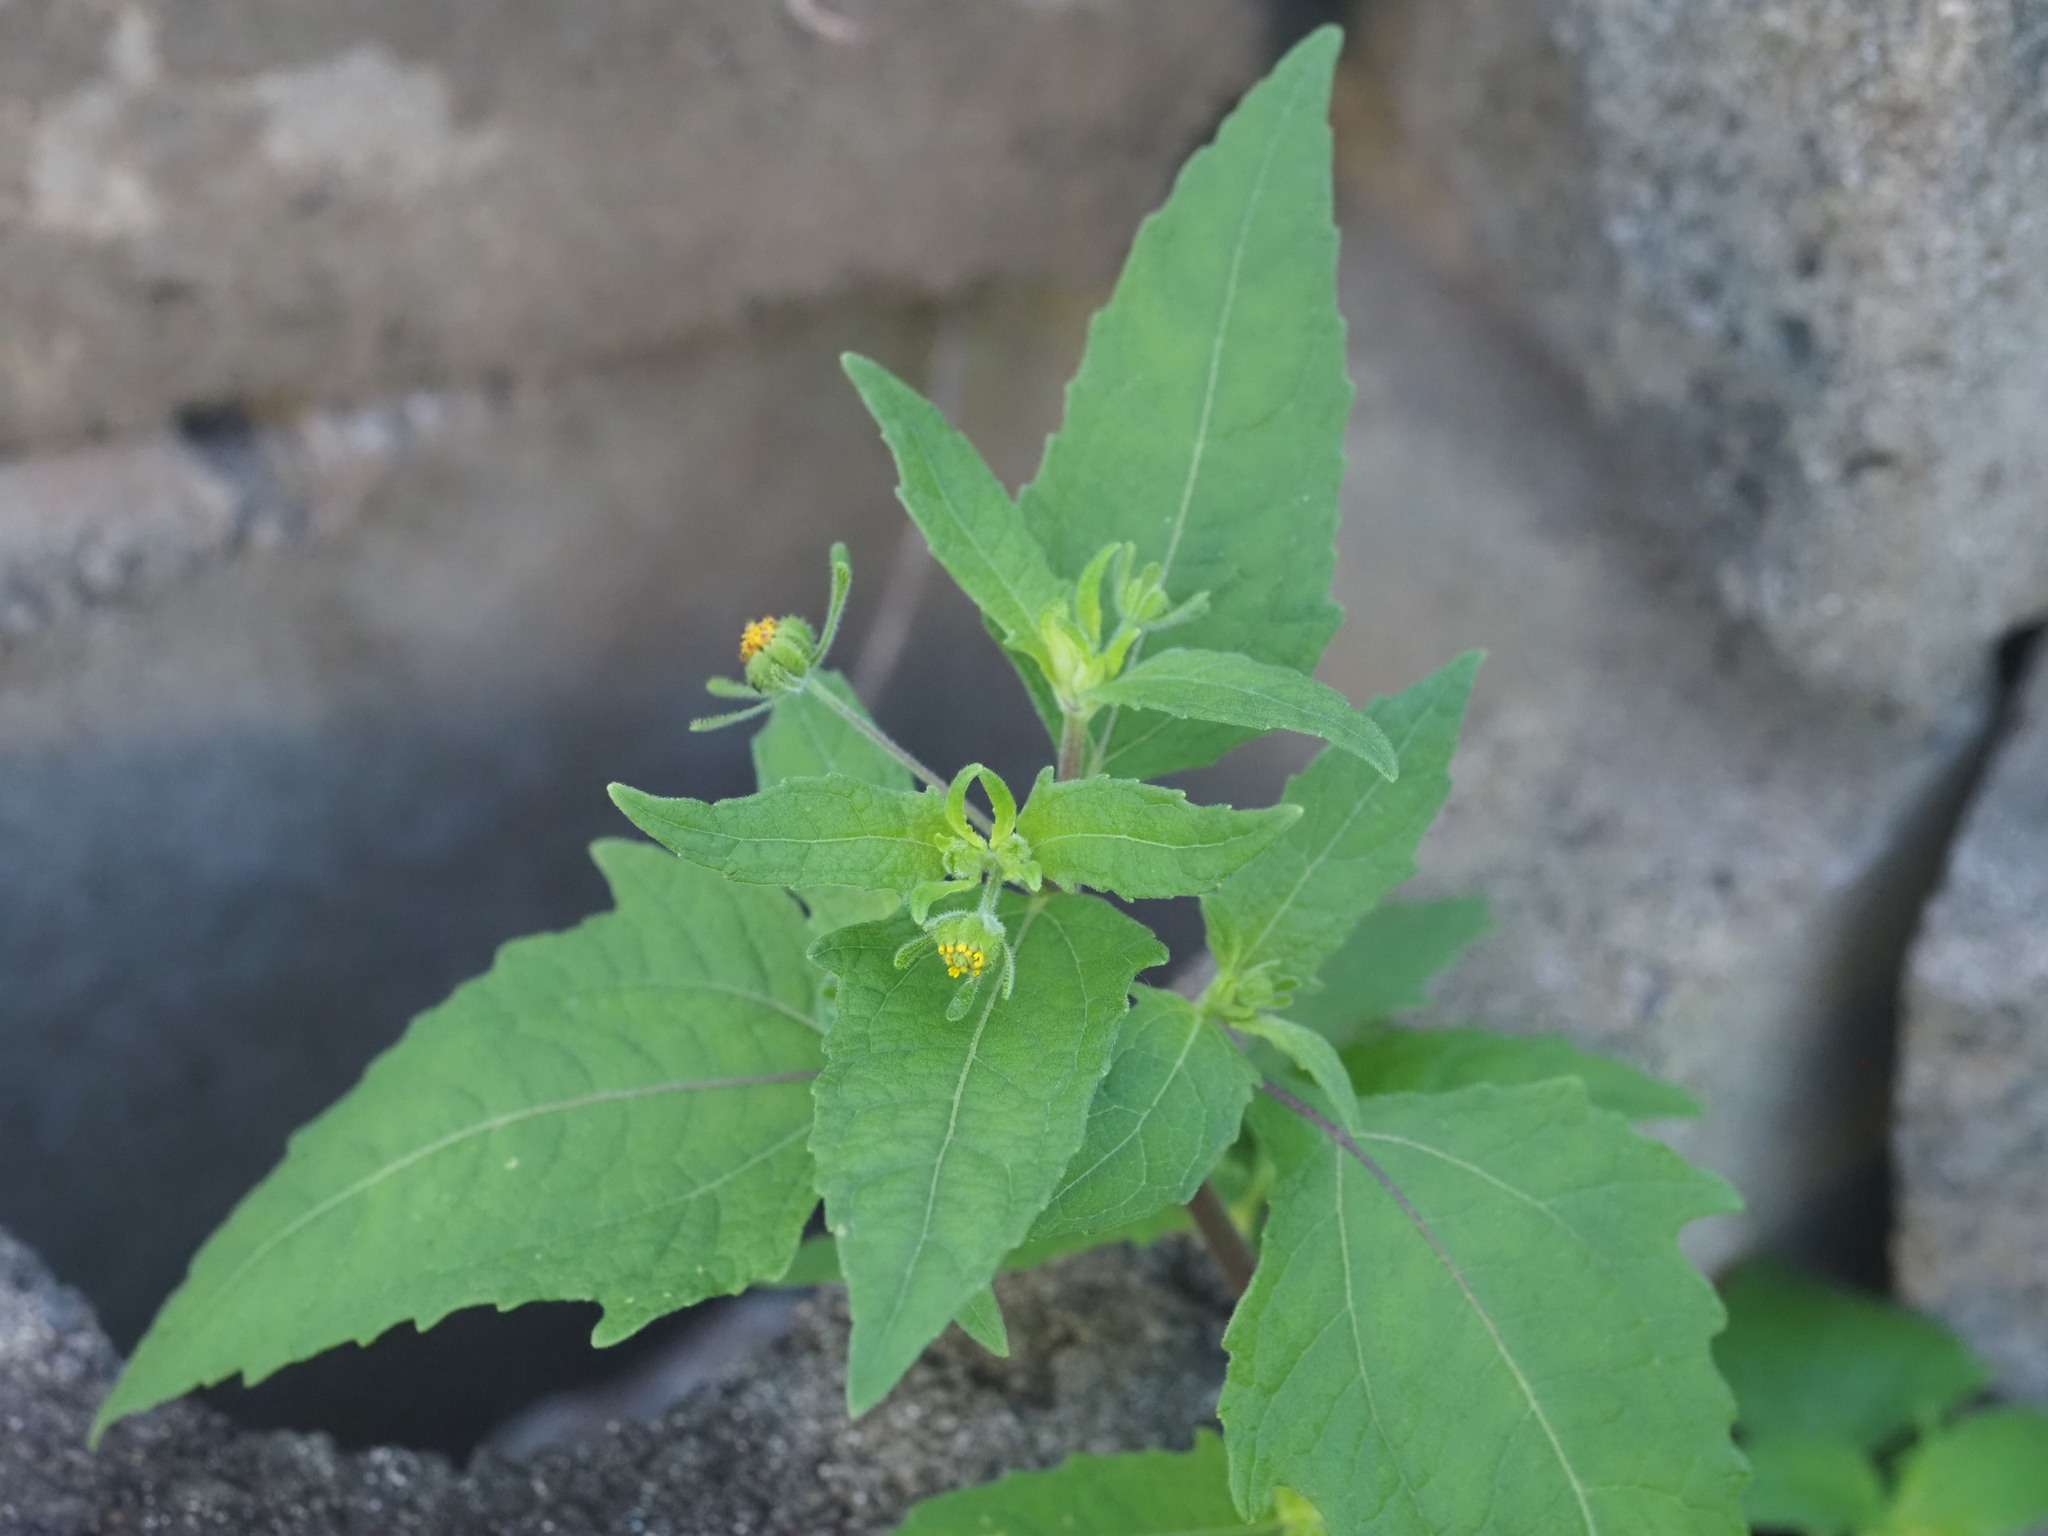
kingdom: Plantae
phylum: Tracheophyta
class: Magnoliopsida
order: Asterales
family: Asteraceae
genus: Sigesbeckia
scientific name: Sigesbeckia orientalis
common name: Eastern st paul's-wort
